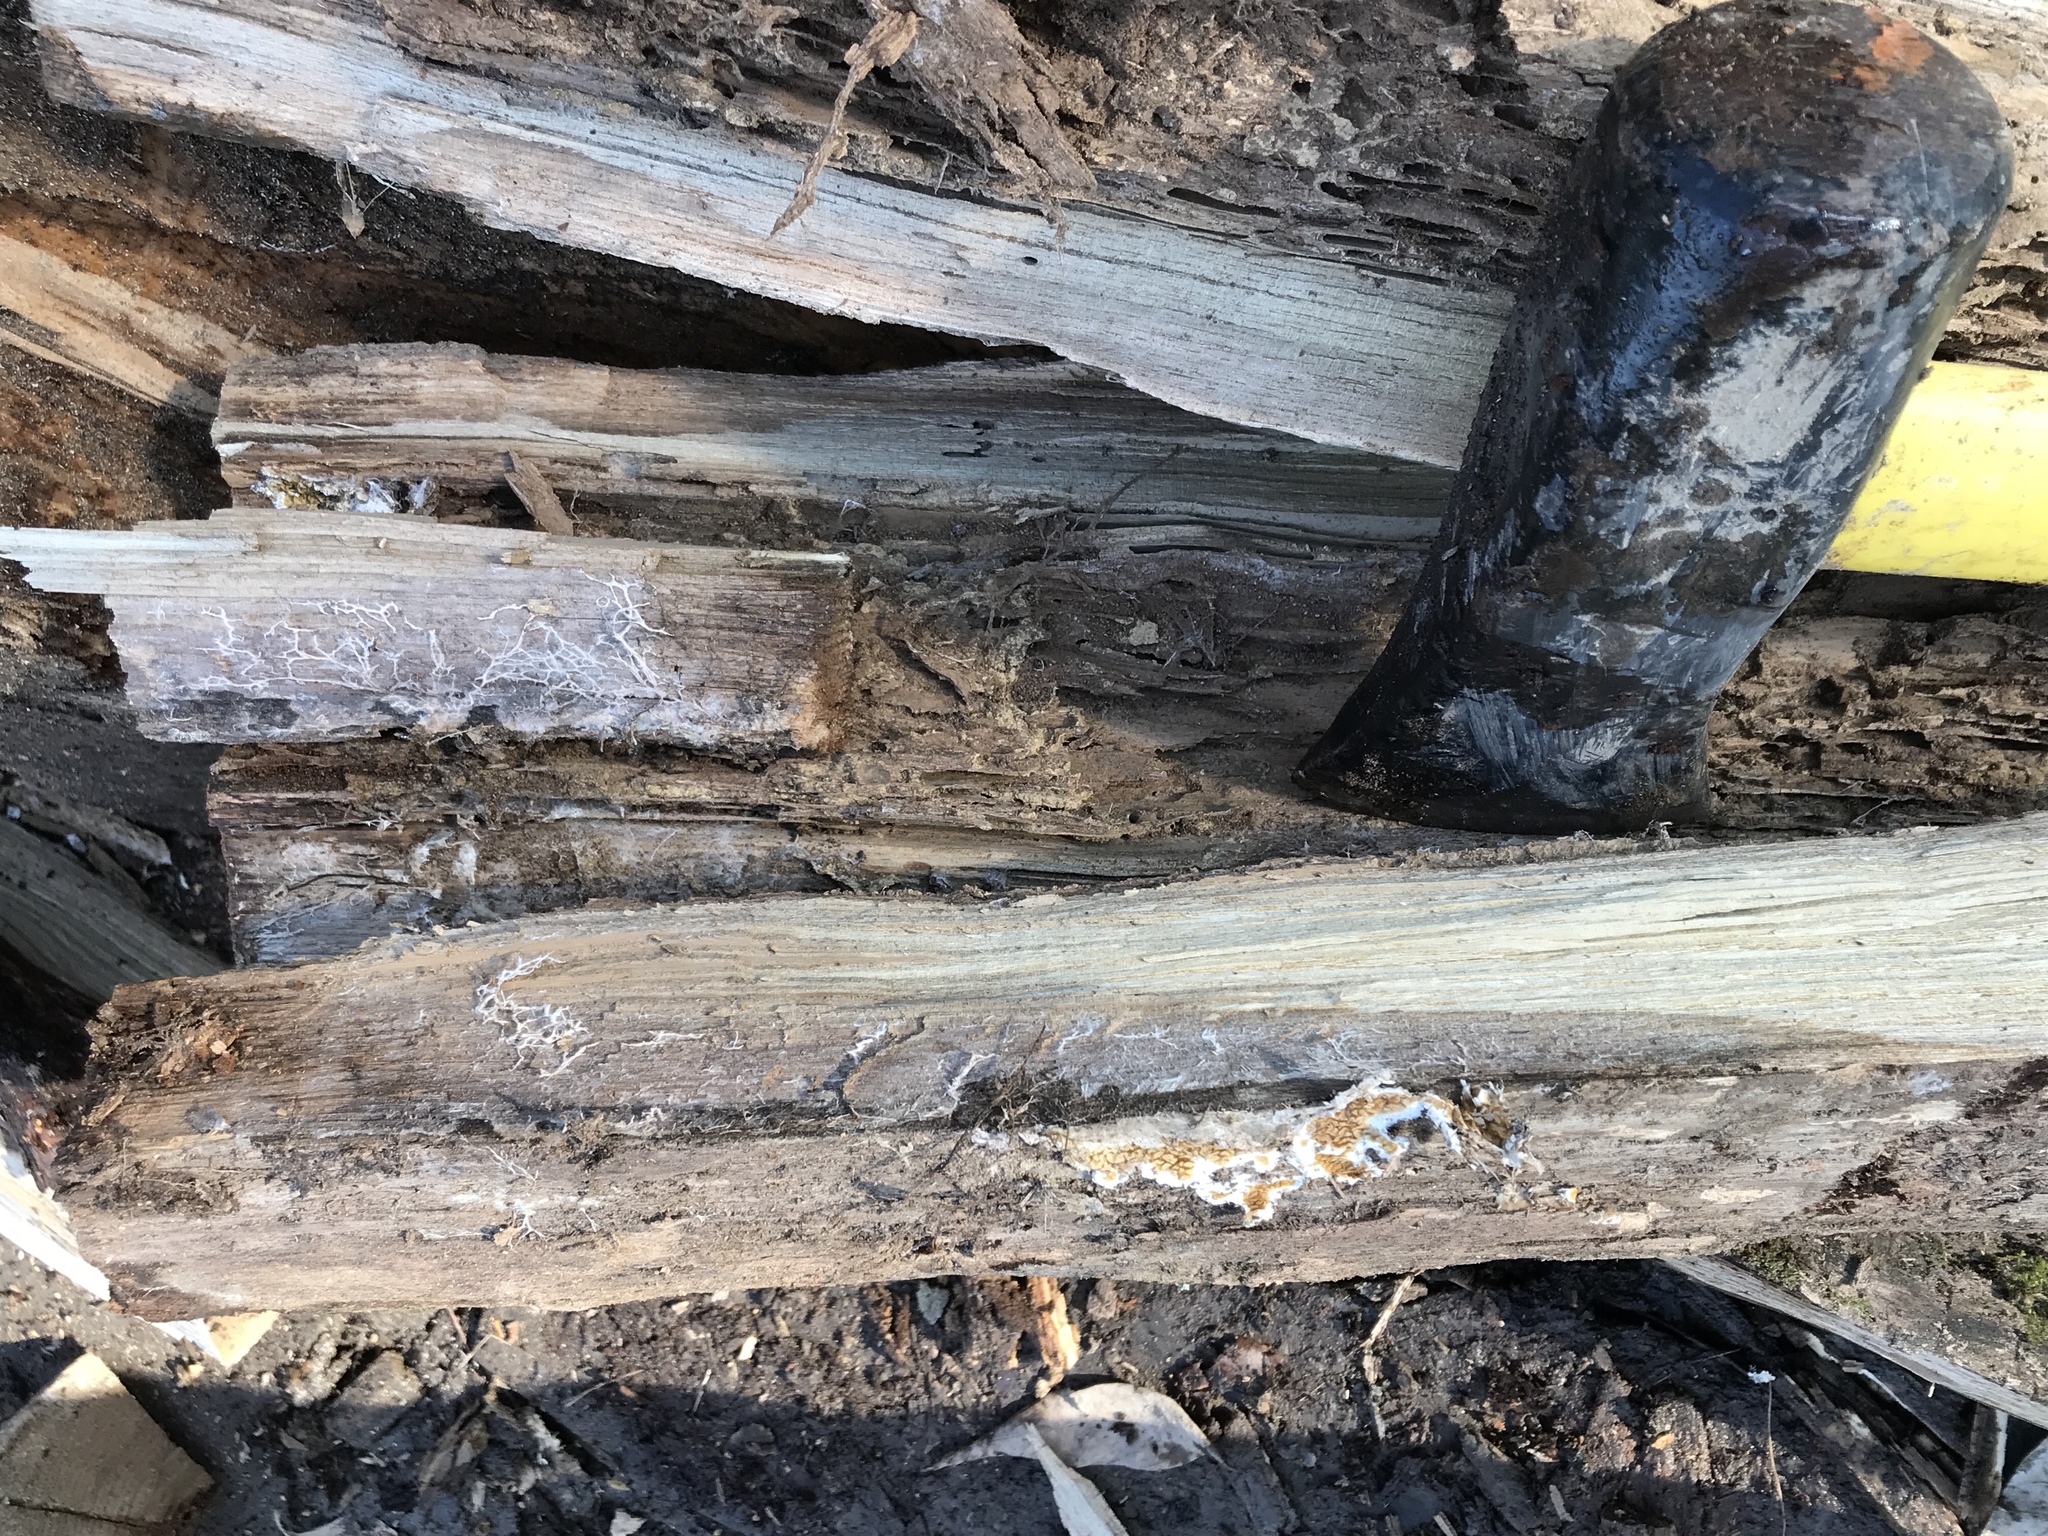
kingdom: Fungi
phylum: Basidiomycota
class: Agaricomycetes
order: Boletales
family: Serpulaceae
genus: Serpula
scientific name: Serpula himantioides
